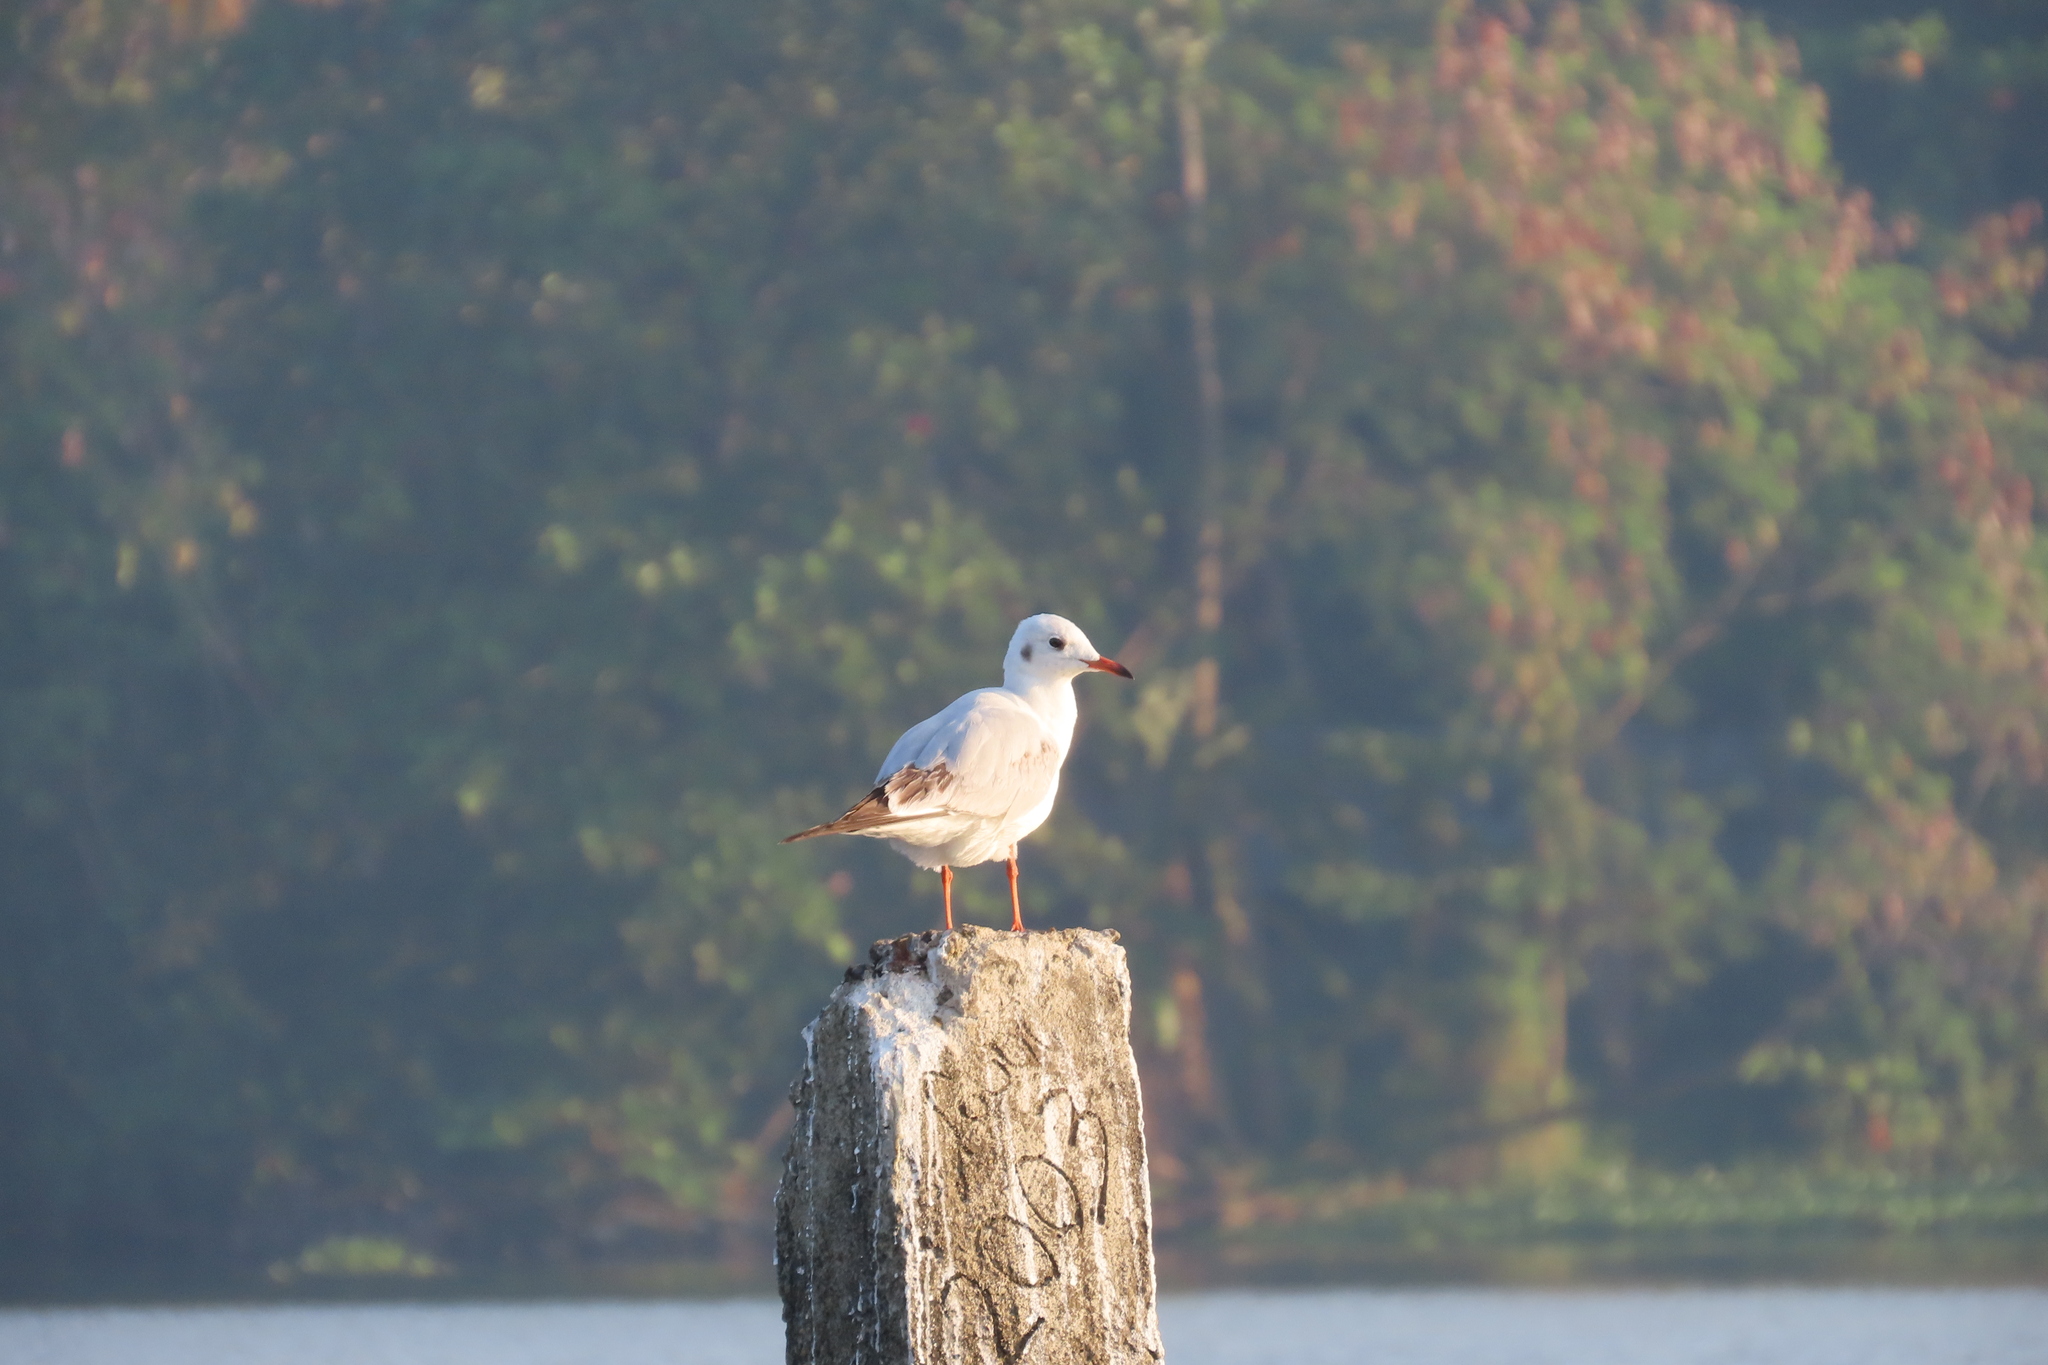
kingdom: Animalia
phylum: Chordata
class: Aves
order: Charadriiformes
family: Laridae
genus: Chroicocephalus
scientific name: Chroicocephalus ridibundus
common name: Black-headed gull
